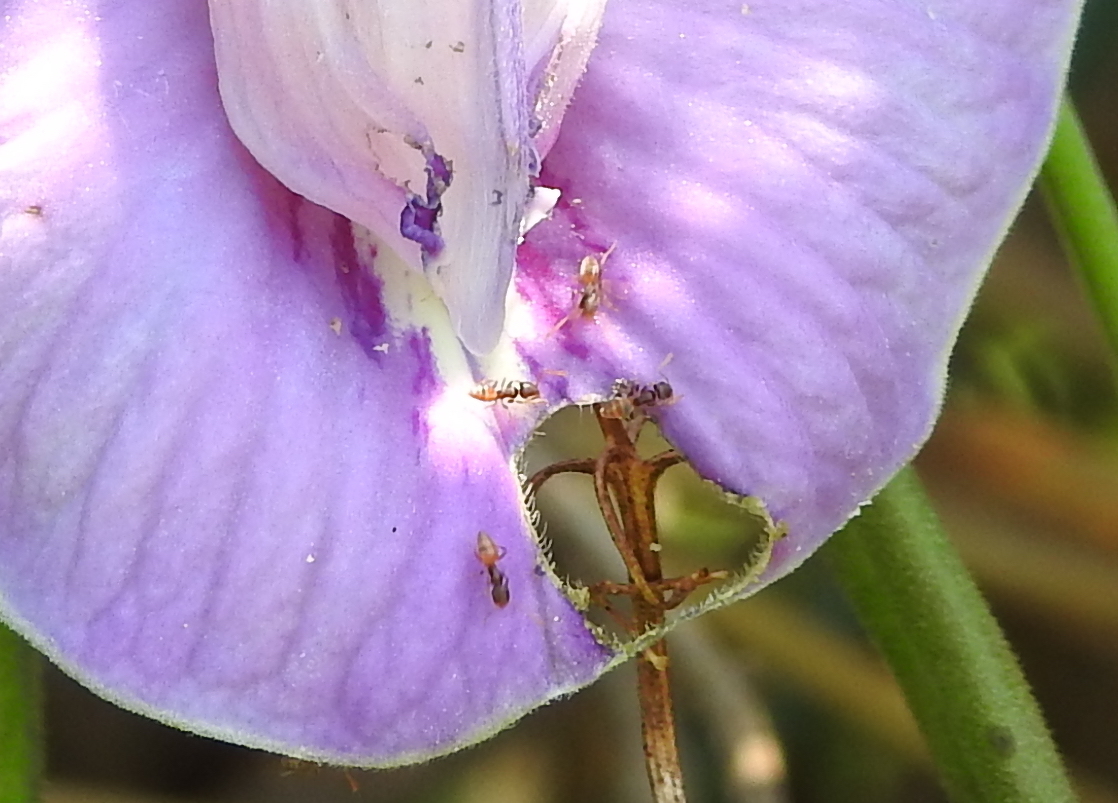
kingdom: Animalia
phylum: Arthropoda
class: Insecta
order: Hymenoptera
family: Formicidae
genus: Tapinoma
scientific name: Tapinoma melanocephalum
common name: Ghost ant
